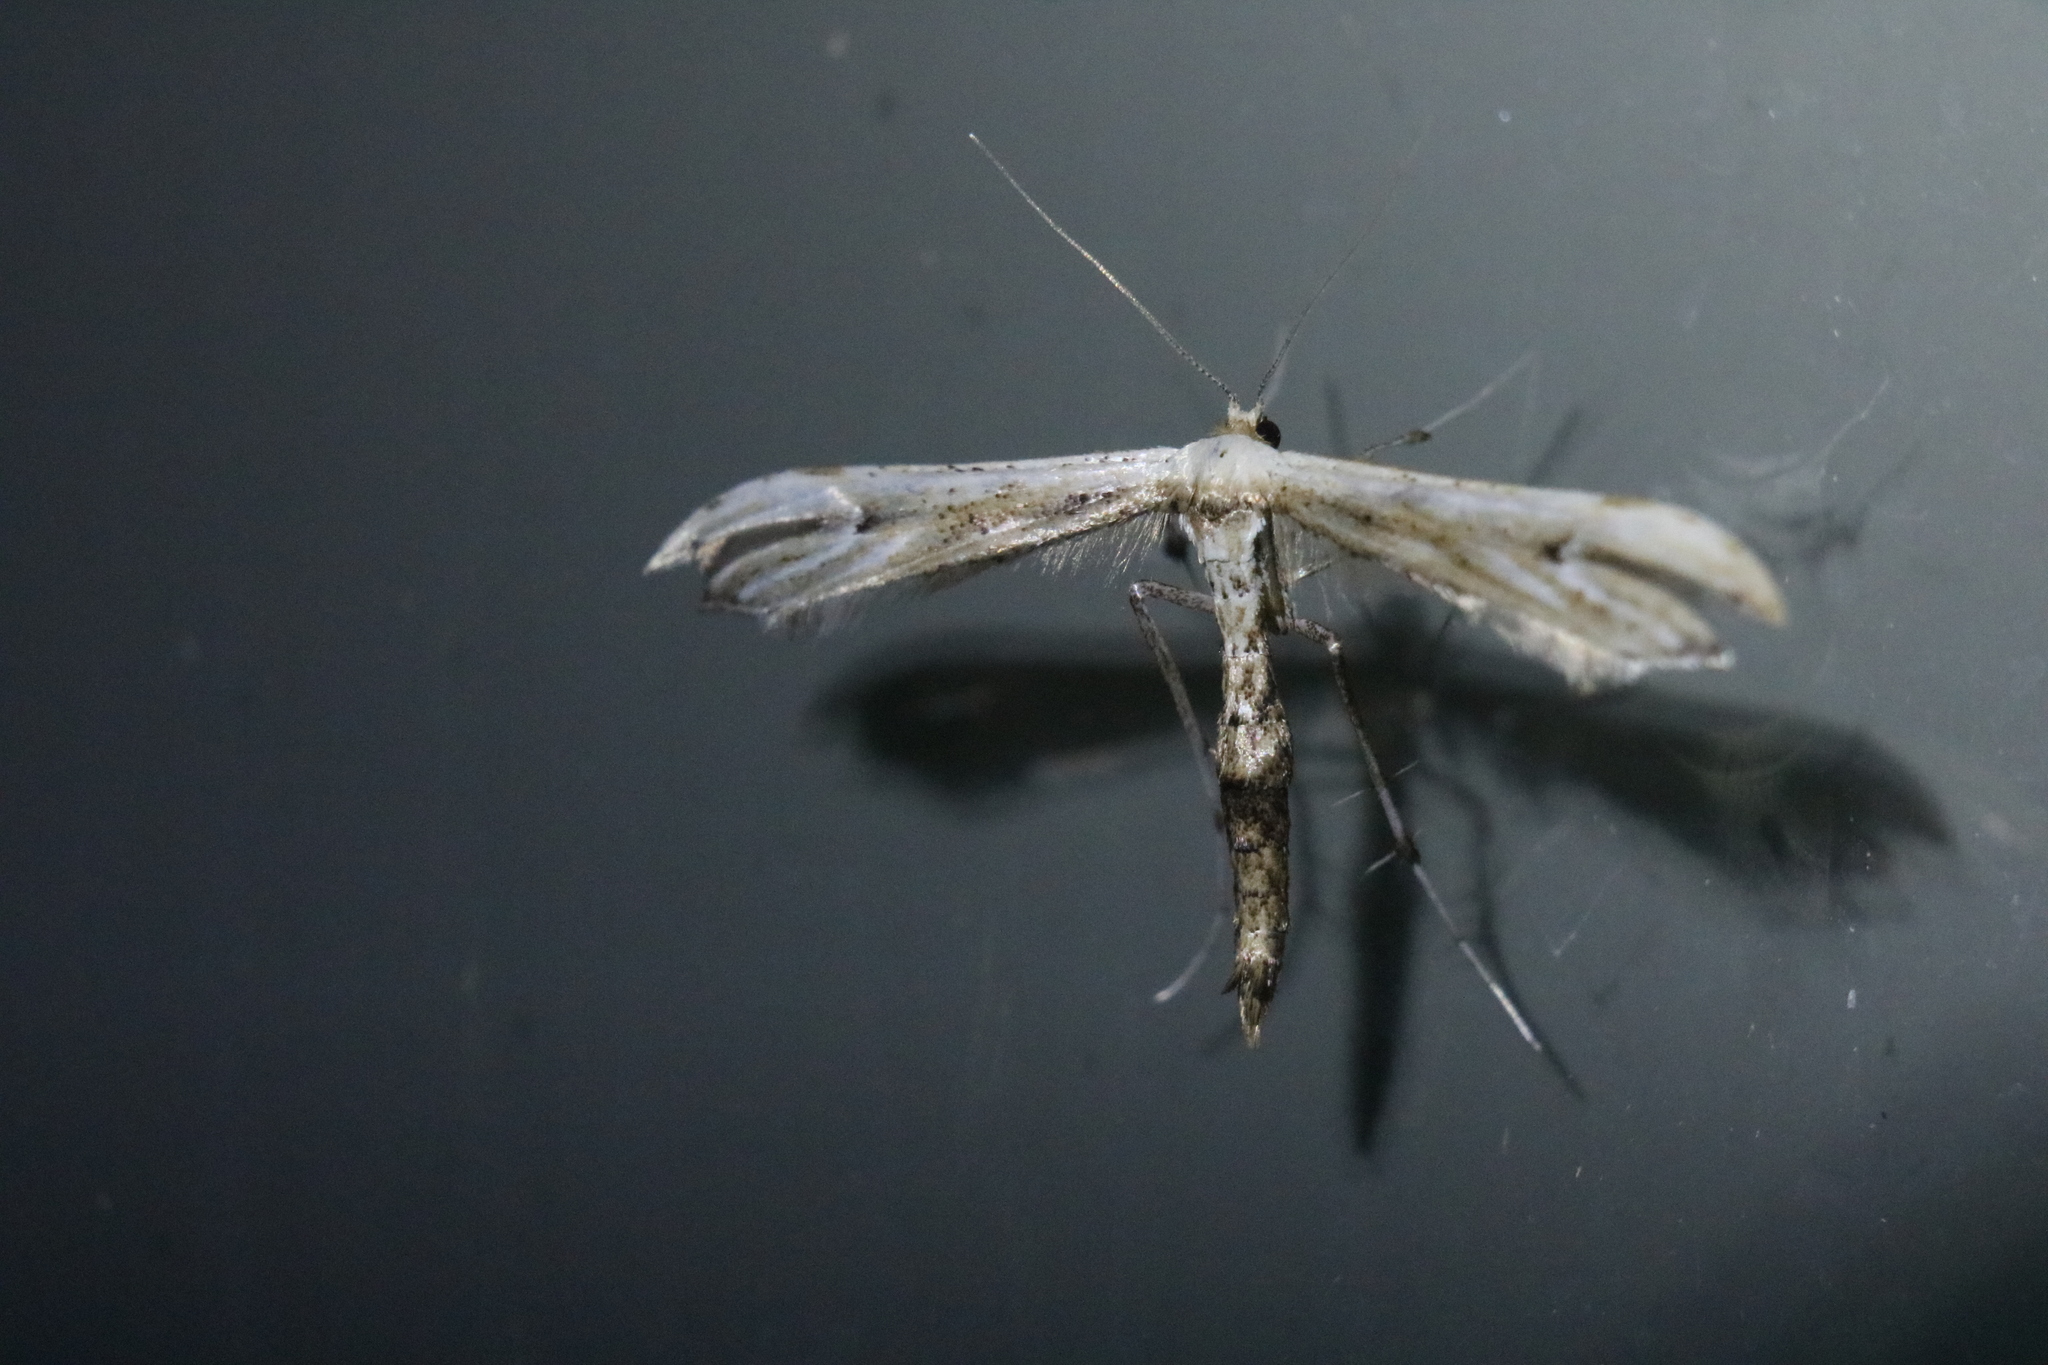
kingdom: Animalia
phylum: Arthropoda
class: Insecta
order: Lepidoptera
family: Pterophoridae
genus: Oidaematophorus
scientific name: Oidaematophorus eupatorii
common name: Eupatorium plume moth
